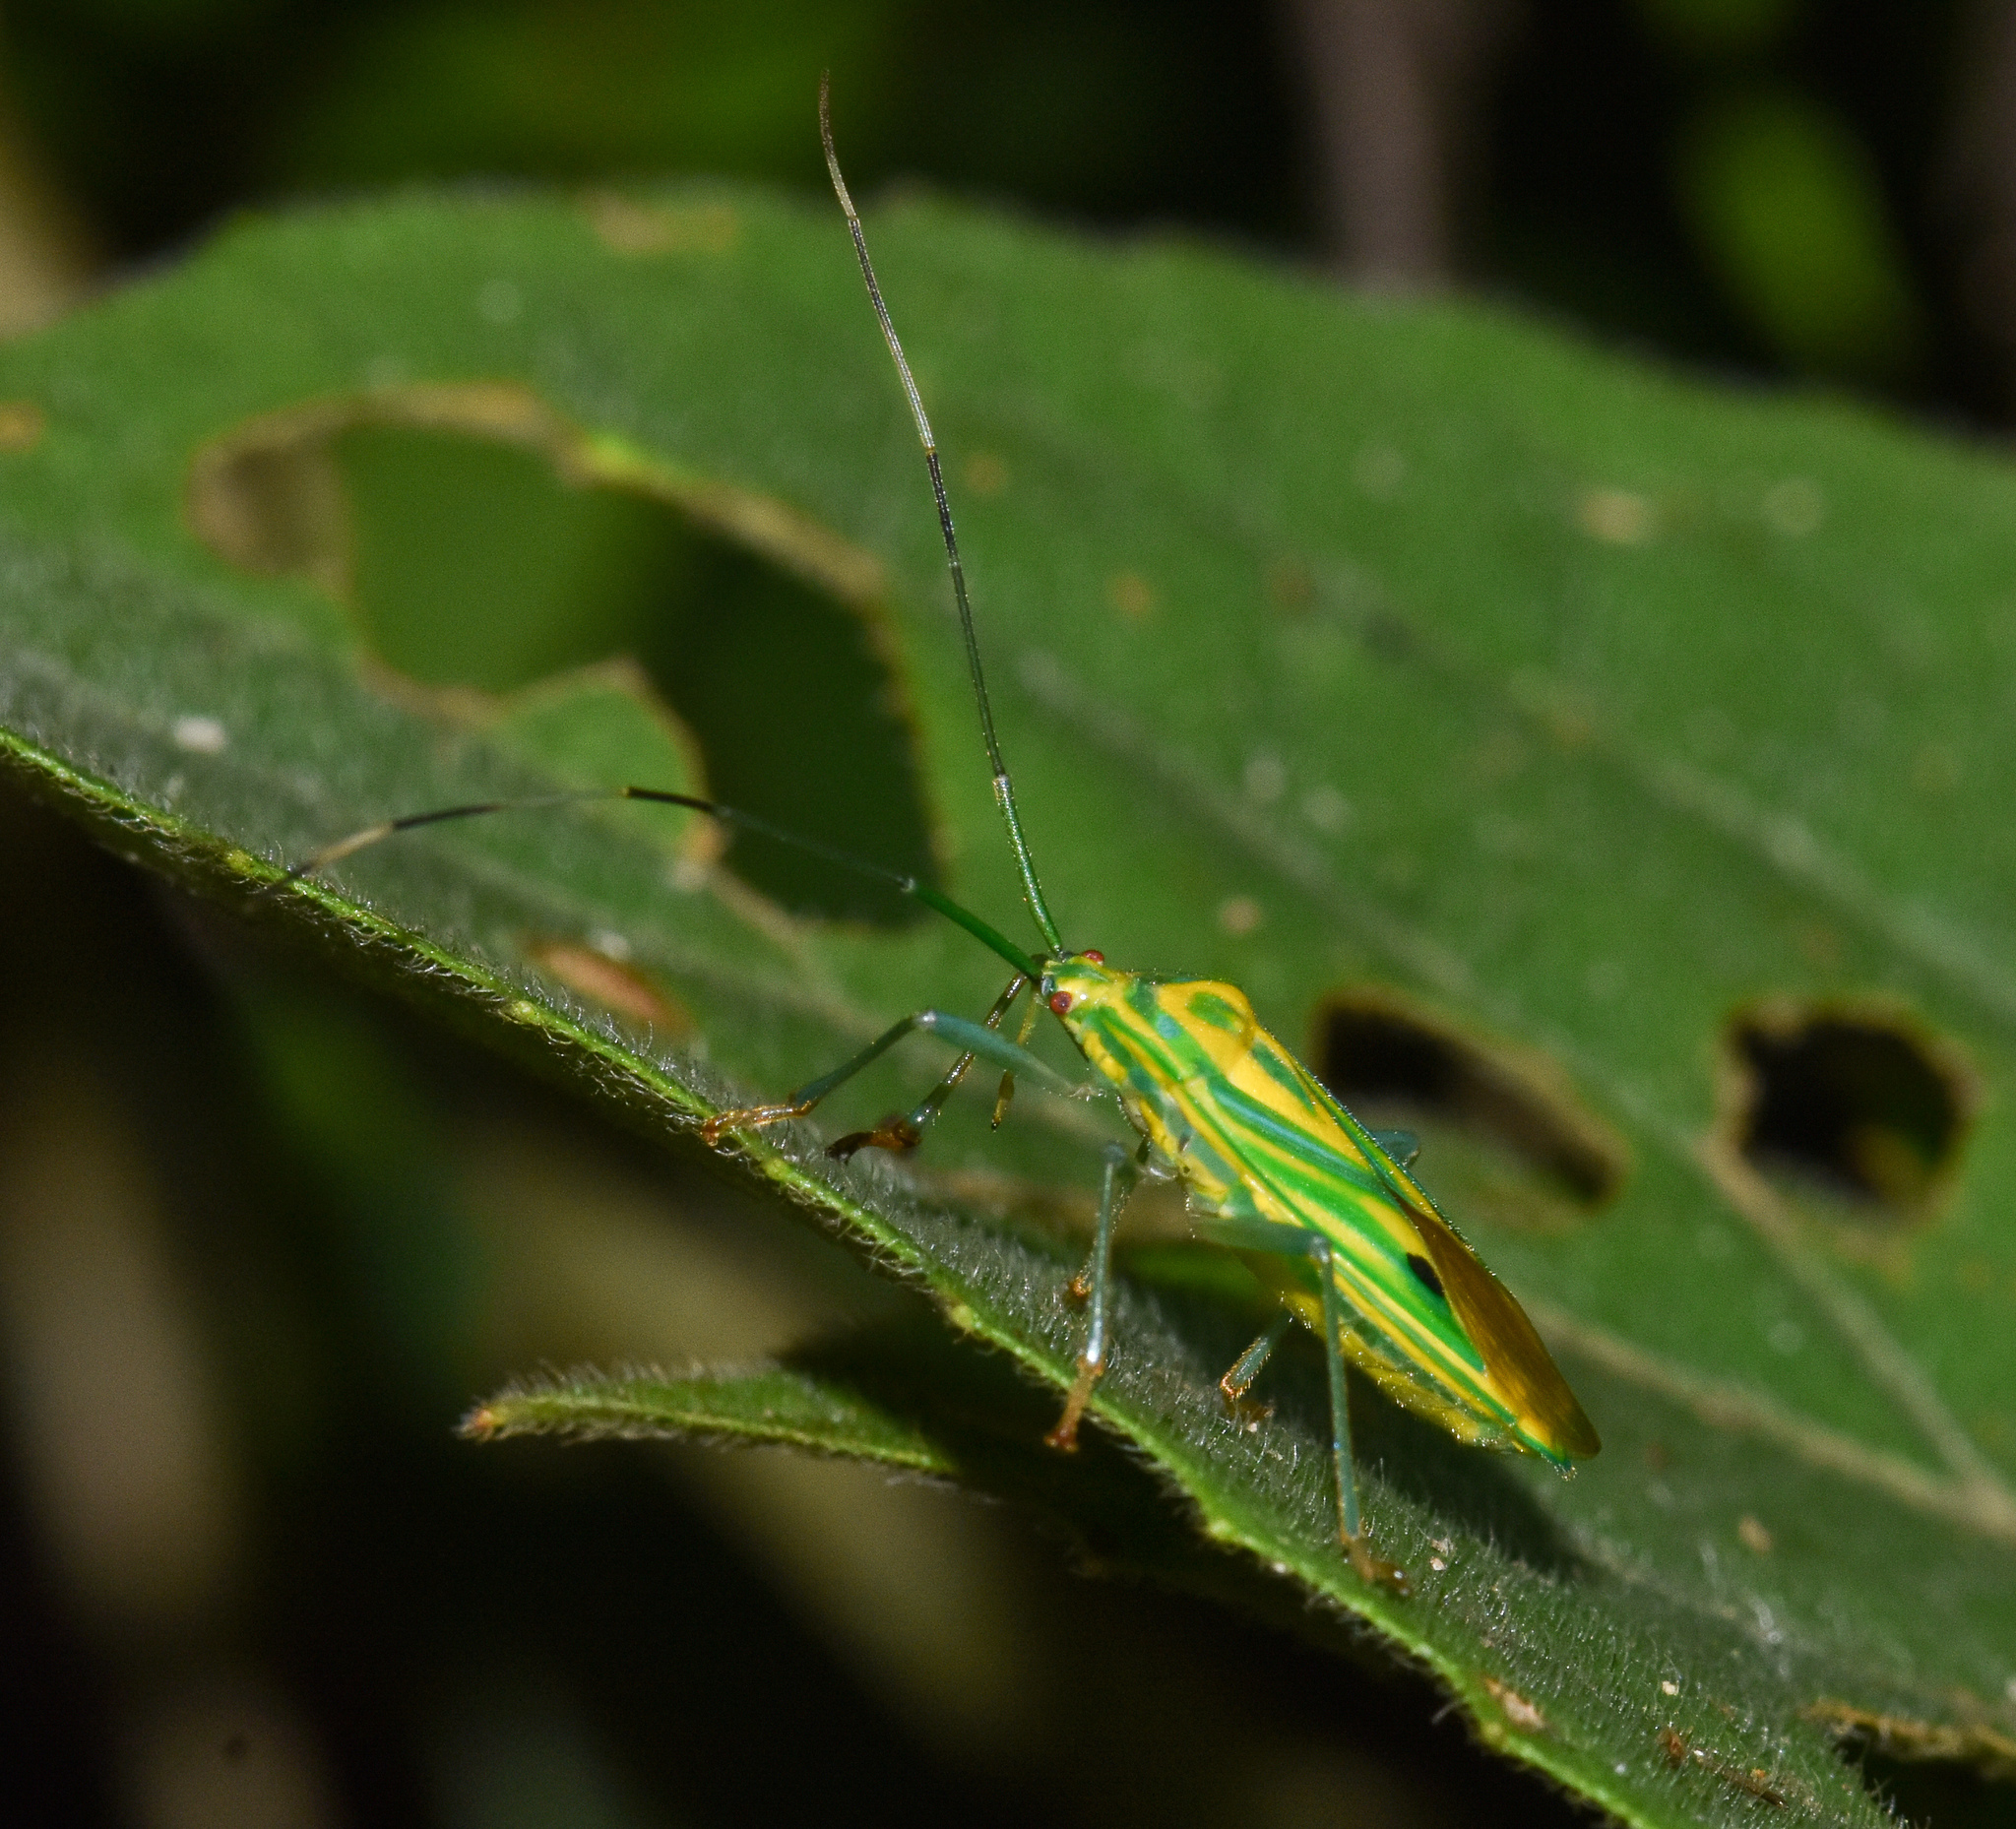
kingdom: Animalia
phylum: Arthropoda
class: Insecta
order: Hemiptera
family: Urostylididae
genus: Urolabida
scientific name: Urolabida
